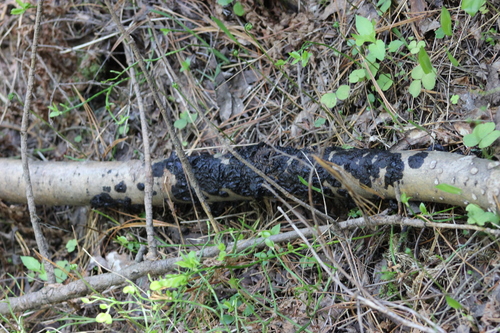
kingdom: Fungi
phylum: Basidiomycota
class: Agaricomycetes
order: Auriculariales
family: Auriculariaceae
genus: Exidia
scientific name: Exidia glandulosa
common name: Witches' butter
